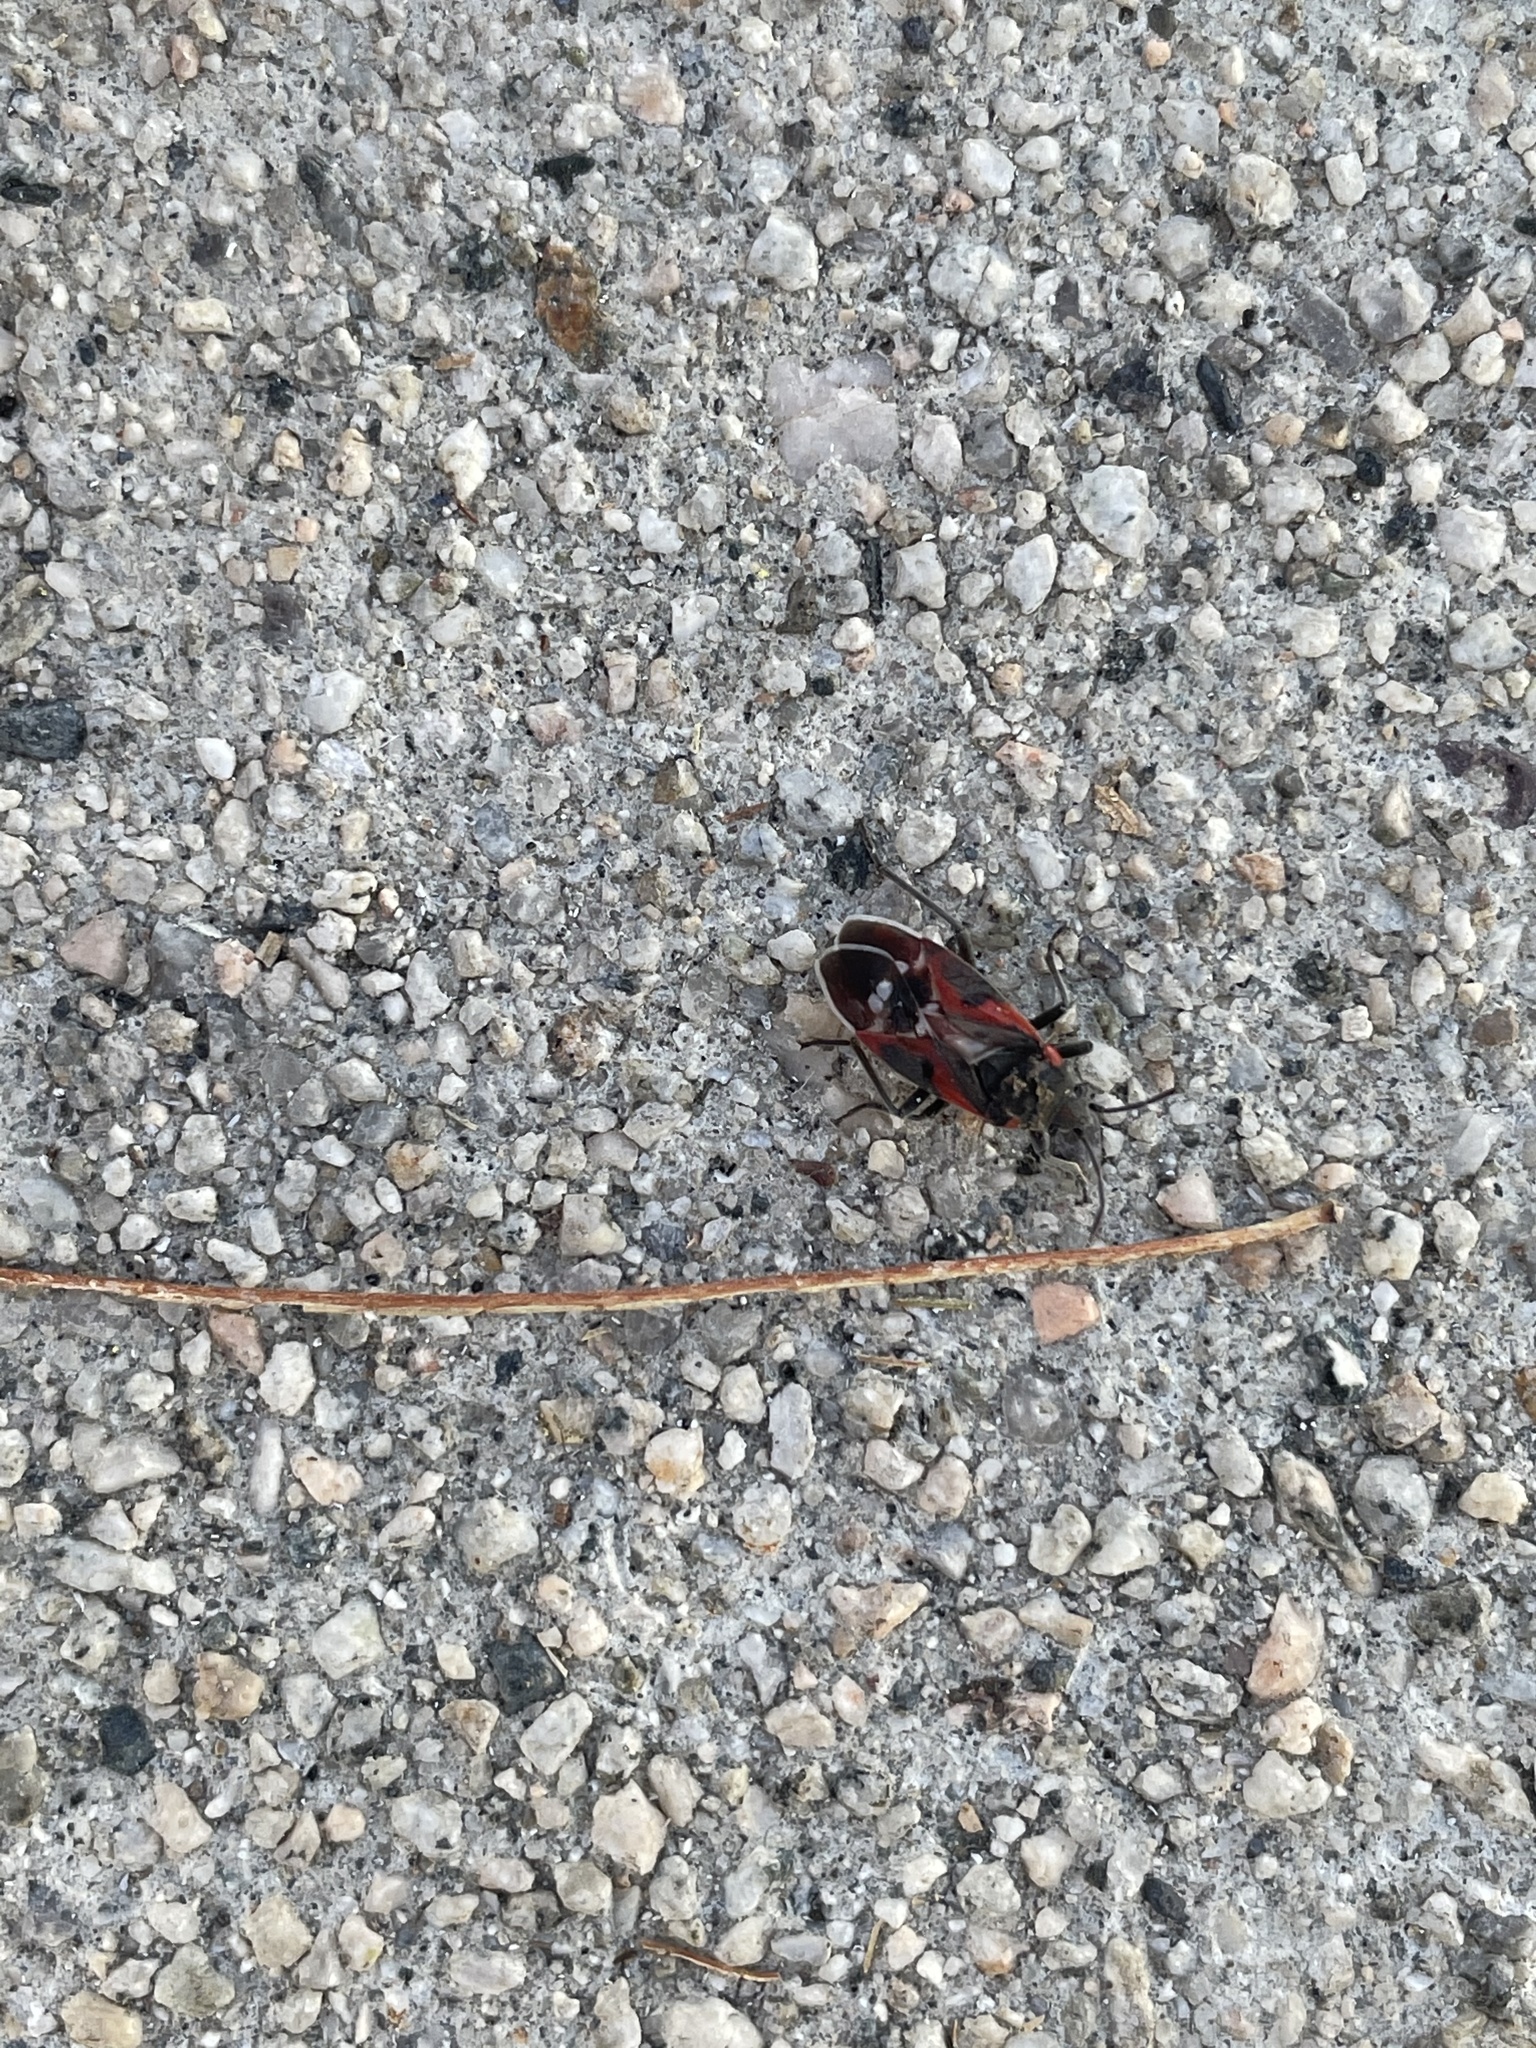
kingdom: Animalia
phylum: Arthropoda
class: Insecta
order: Hemiptera
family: Lygaeidae
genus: Lygaeus
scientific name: Lygaeus kalmii
